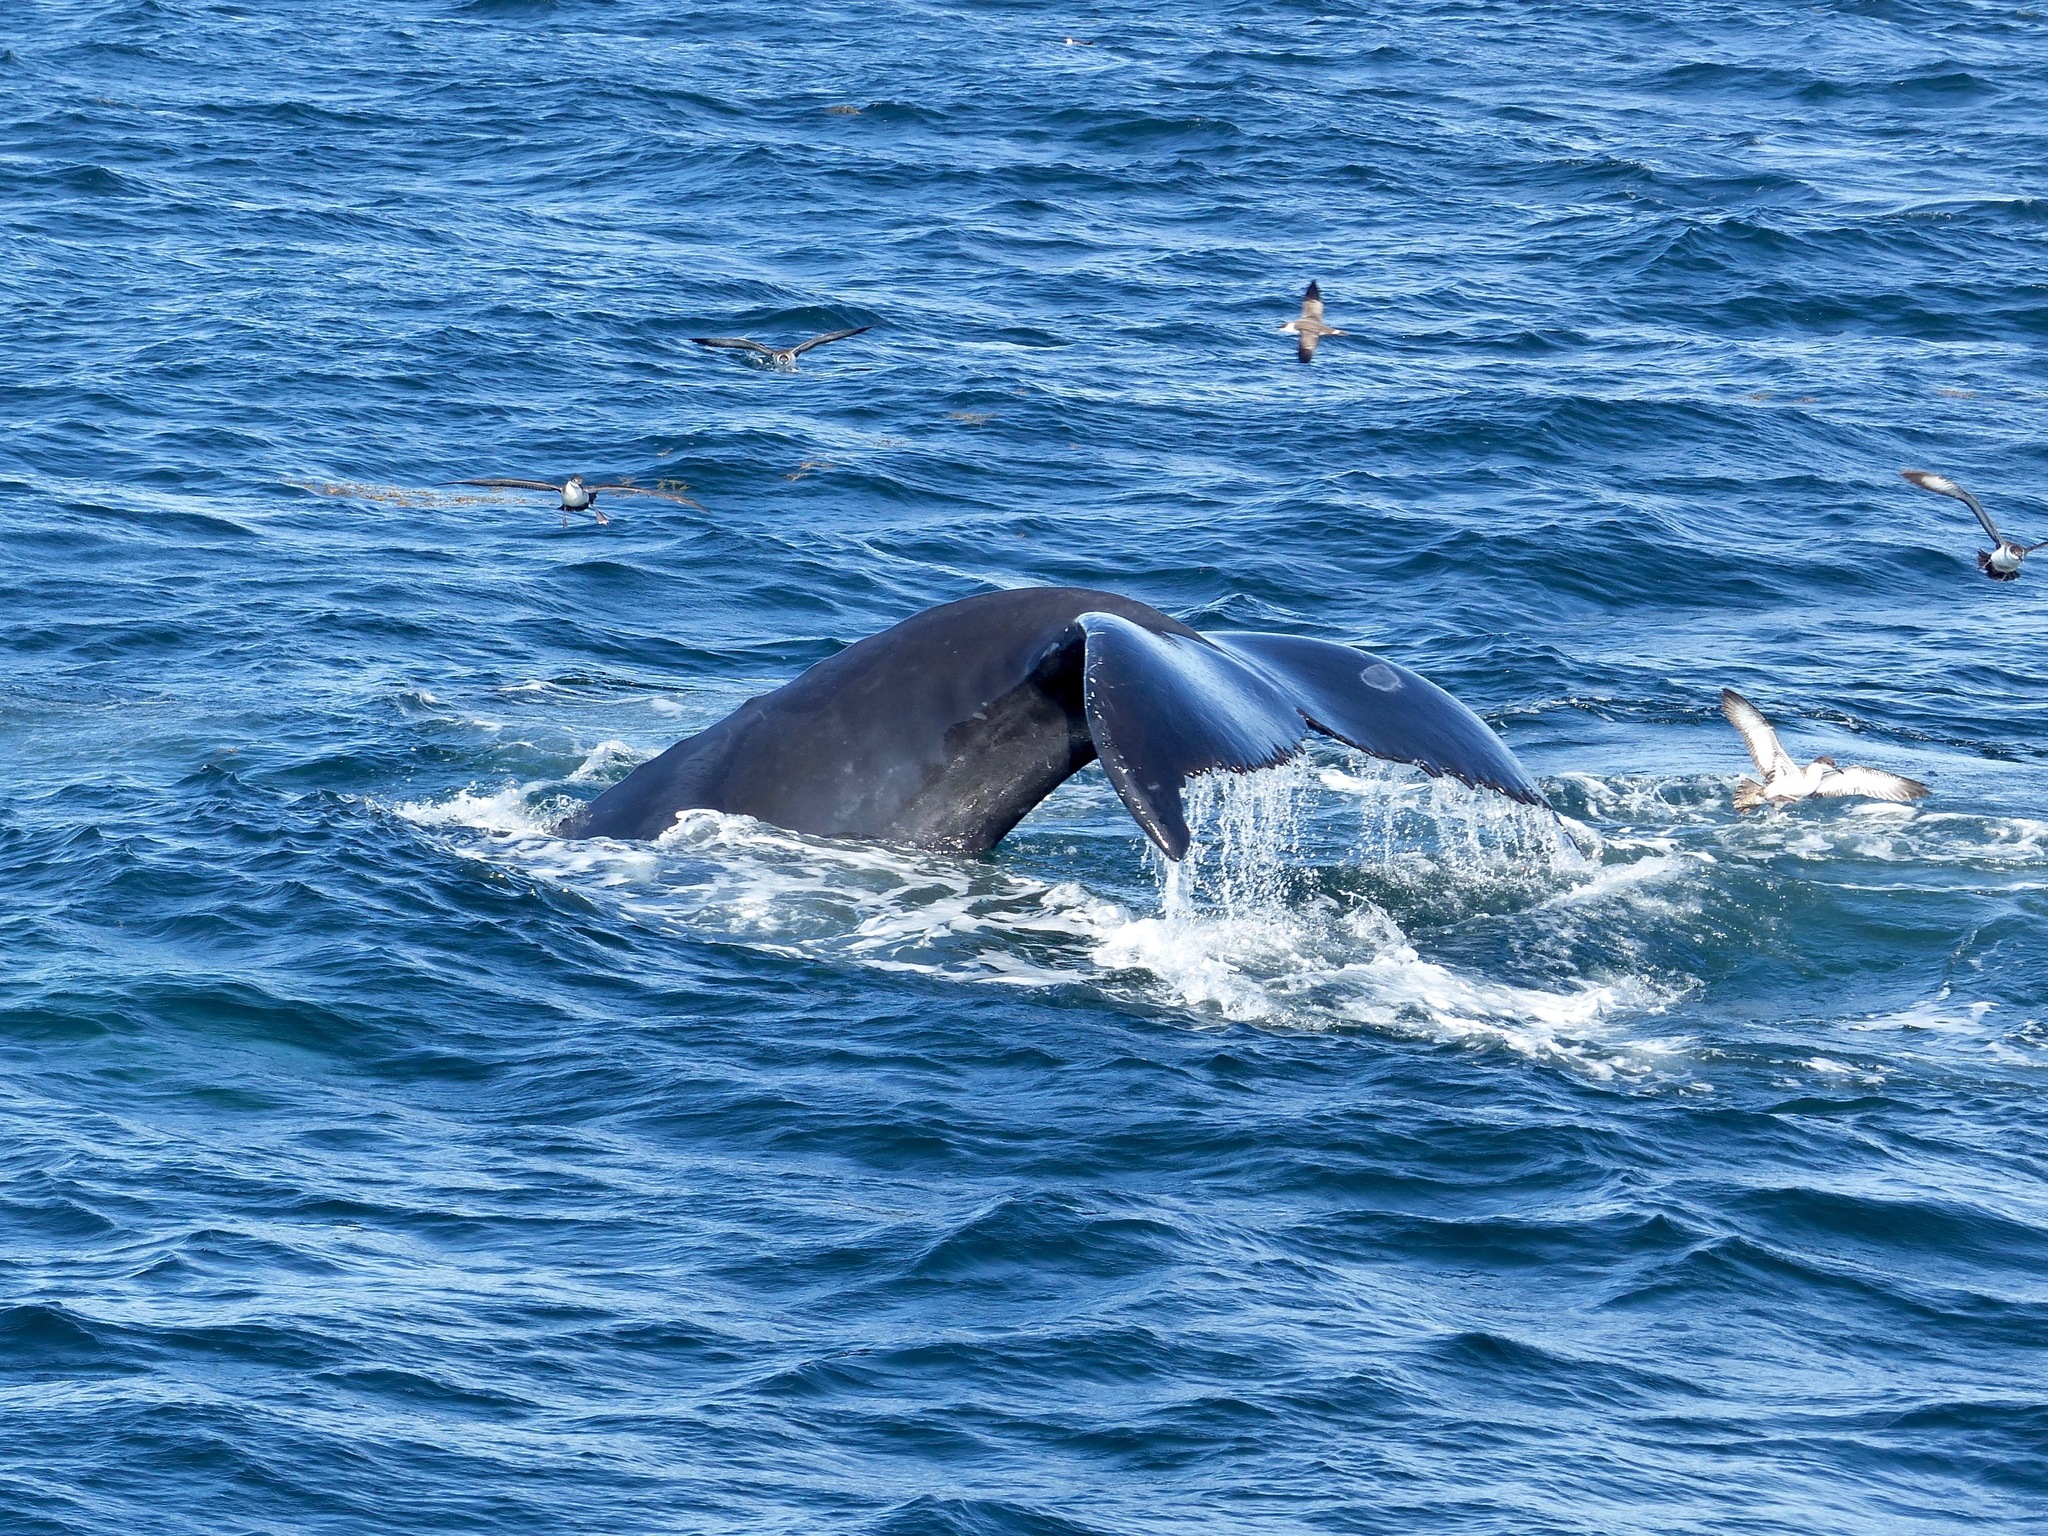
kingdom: Animalia
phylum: Chordata
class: Mammalia
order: Cetacea
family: Balaenopteridae
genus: Megaptera
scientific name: Megaptera novaeangliae
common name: Humpback whale
